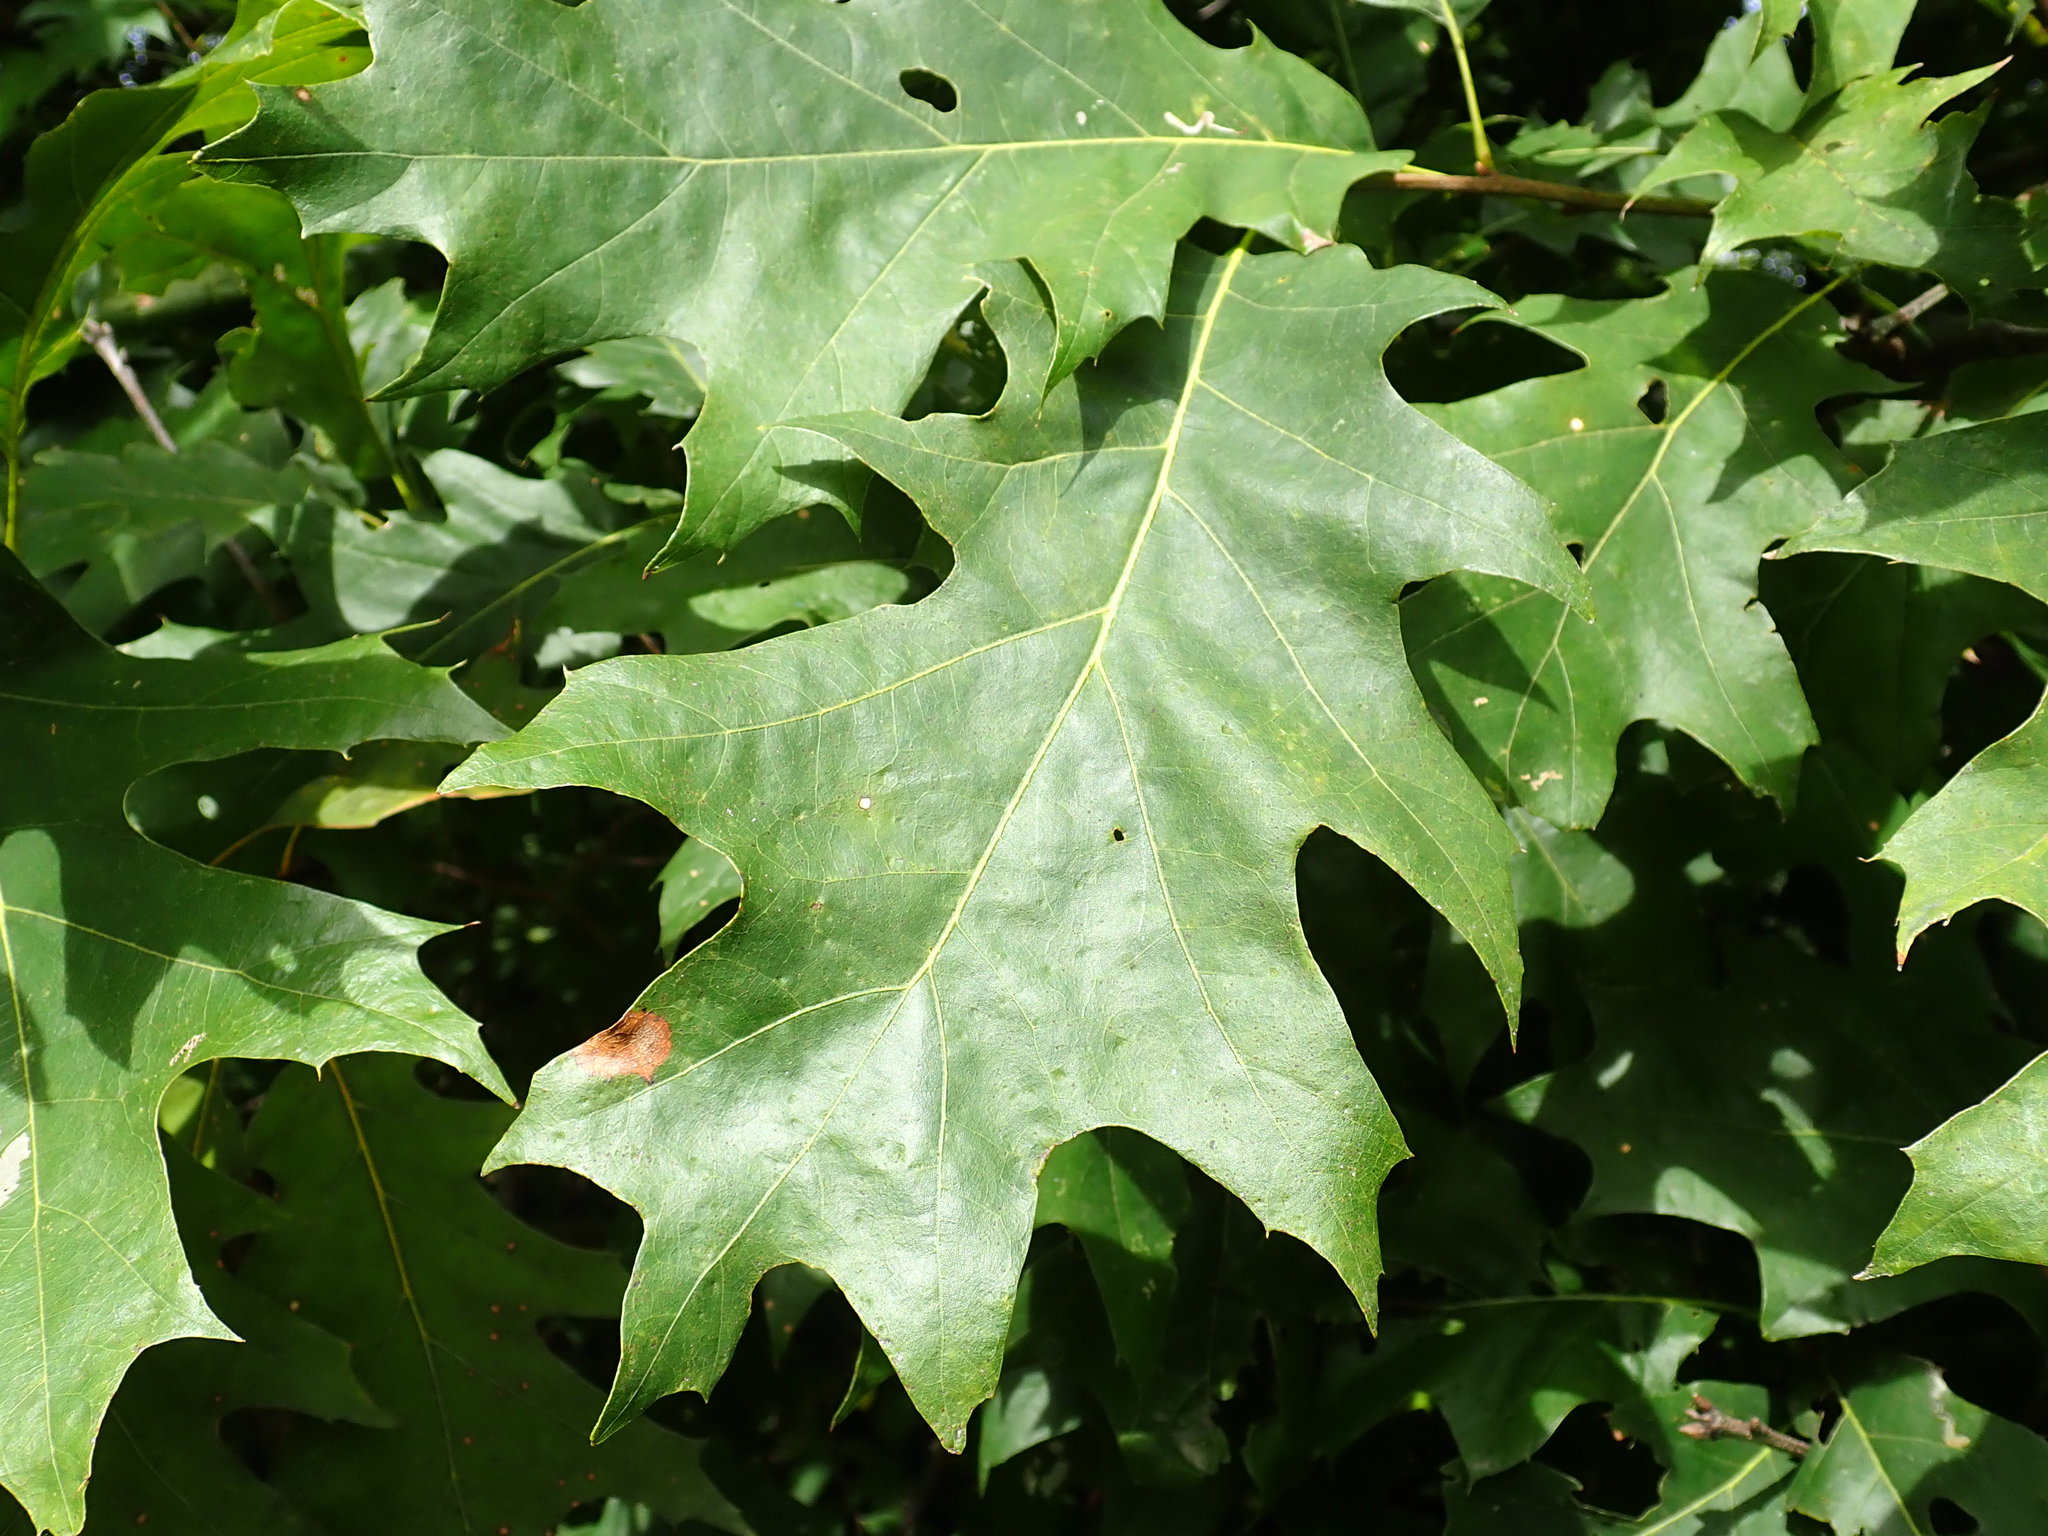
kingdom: Plantae
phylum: Tracheophyta
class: Magnoliopsida
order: Fagales
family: Fagaceae
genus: Quercus
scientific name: Quercus rubra
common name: Red oak
